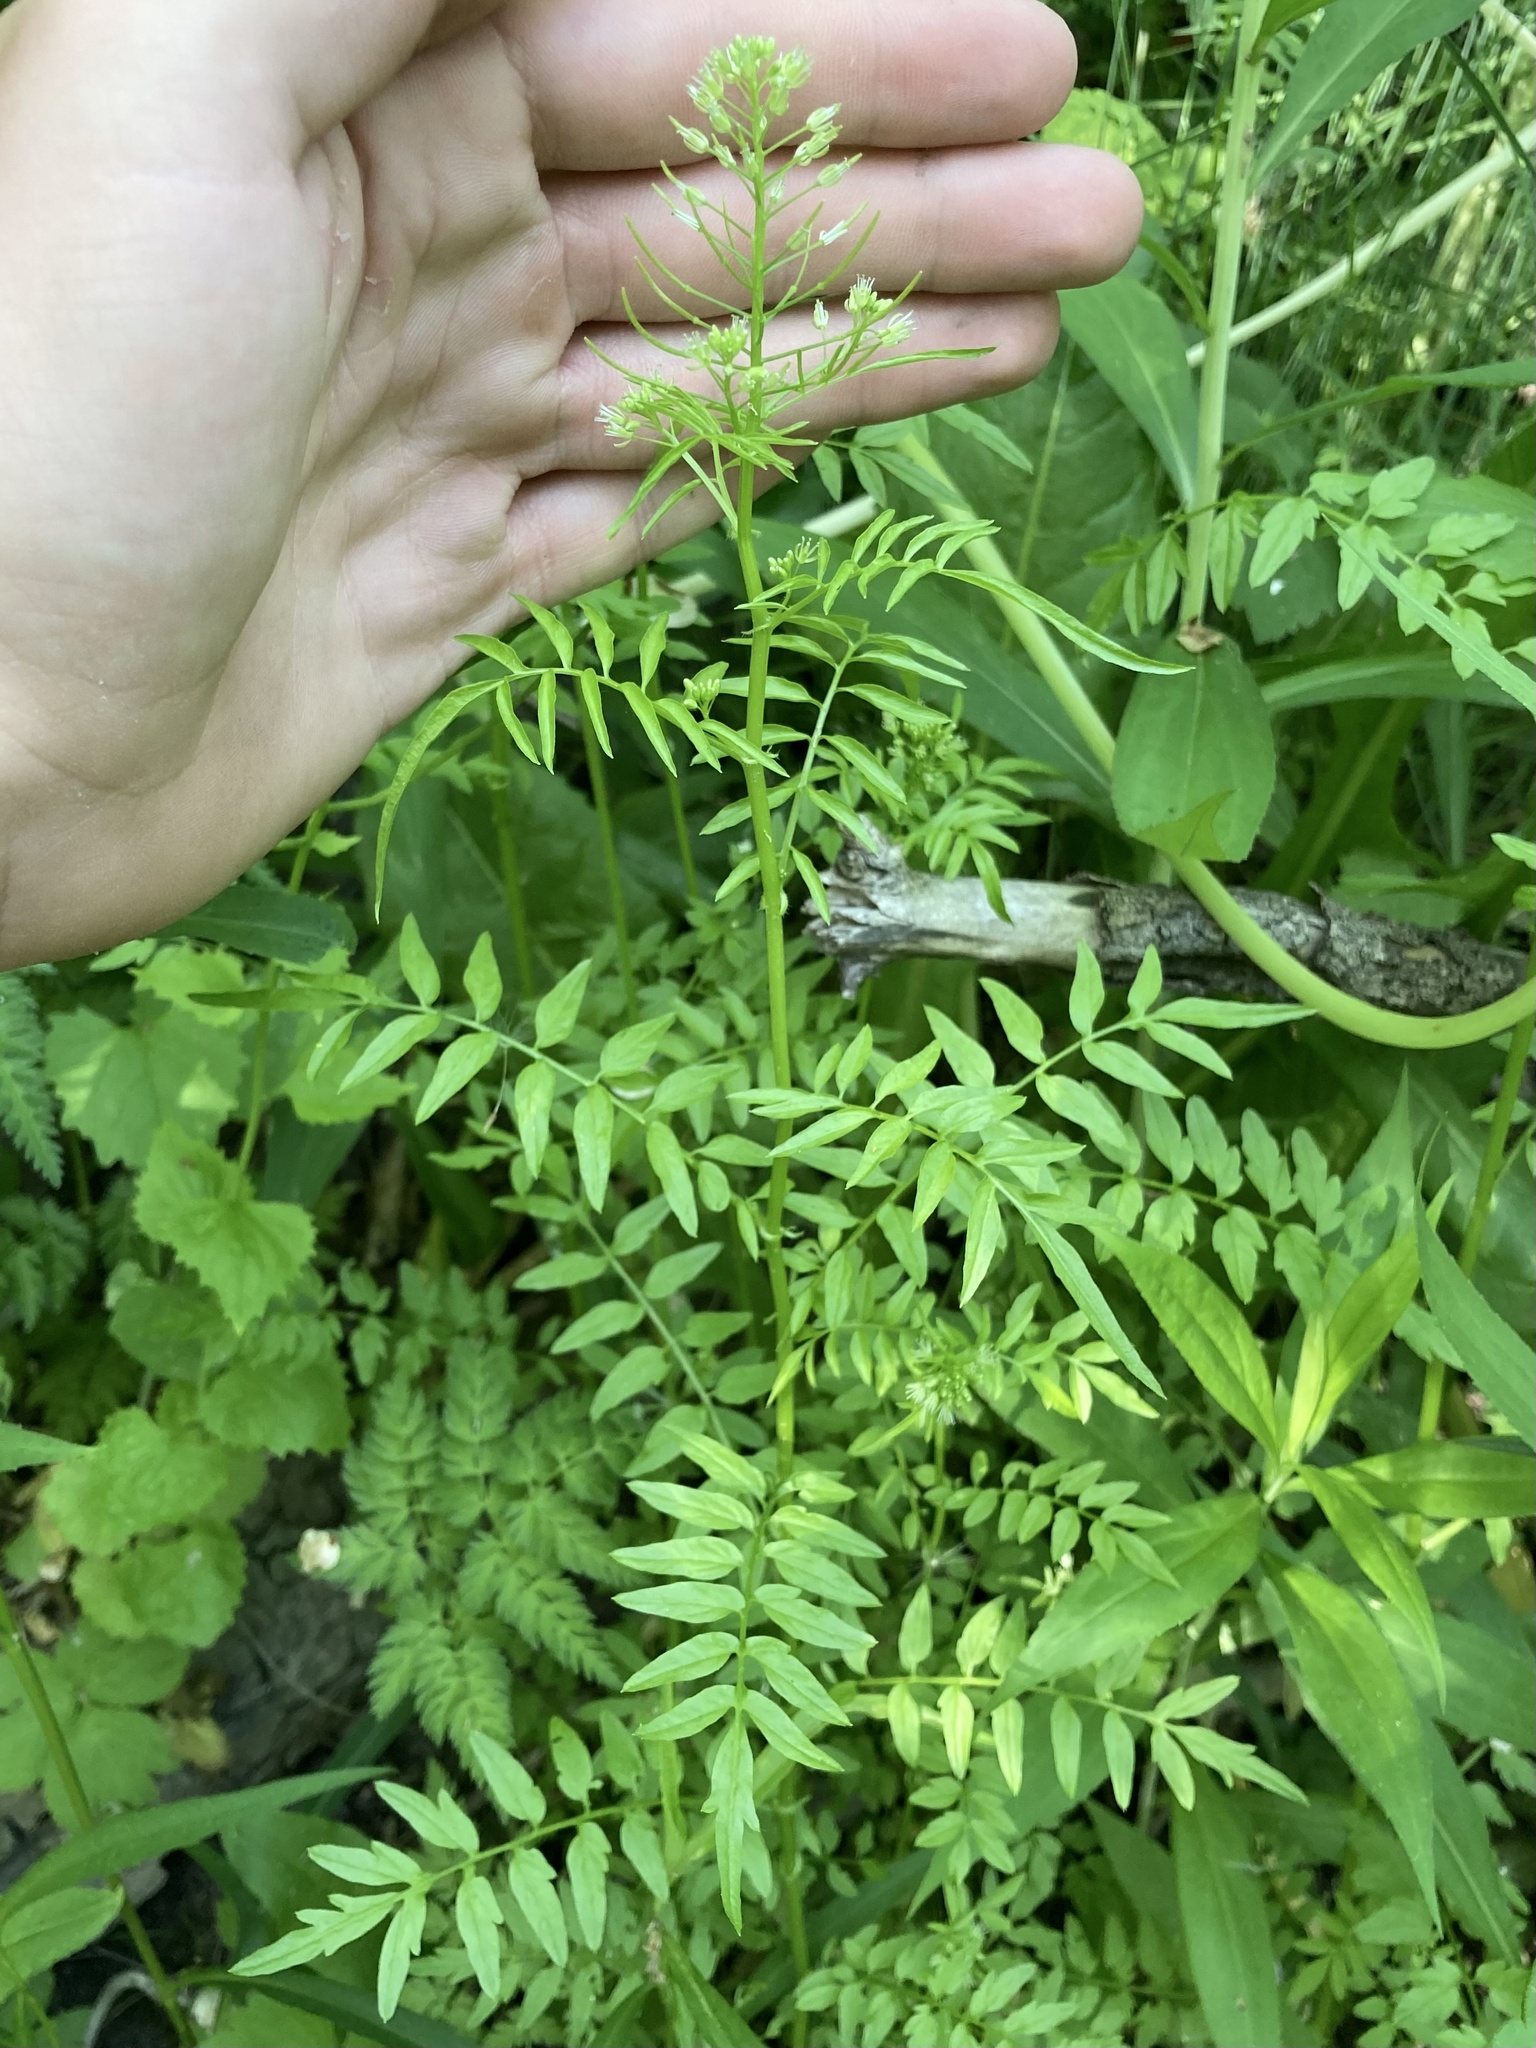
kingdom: Plantae
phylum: Tracheophyta
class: Magnoliopsida
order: Brassicales
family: Brassicaceae
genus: Cardamine
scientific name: Cardamine impatiens
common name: Narrow-leaved bitter-cress
